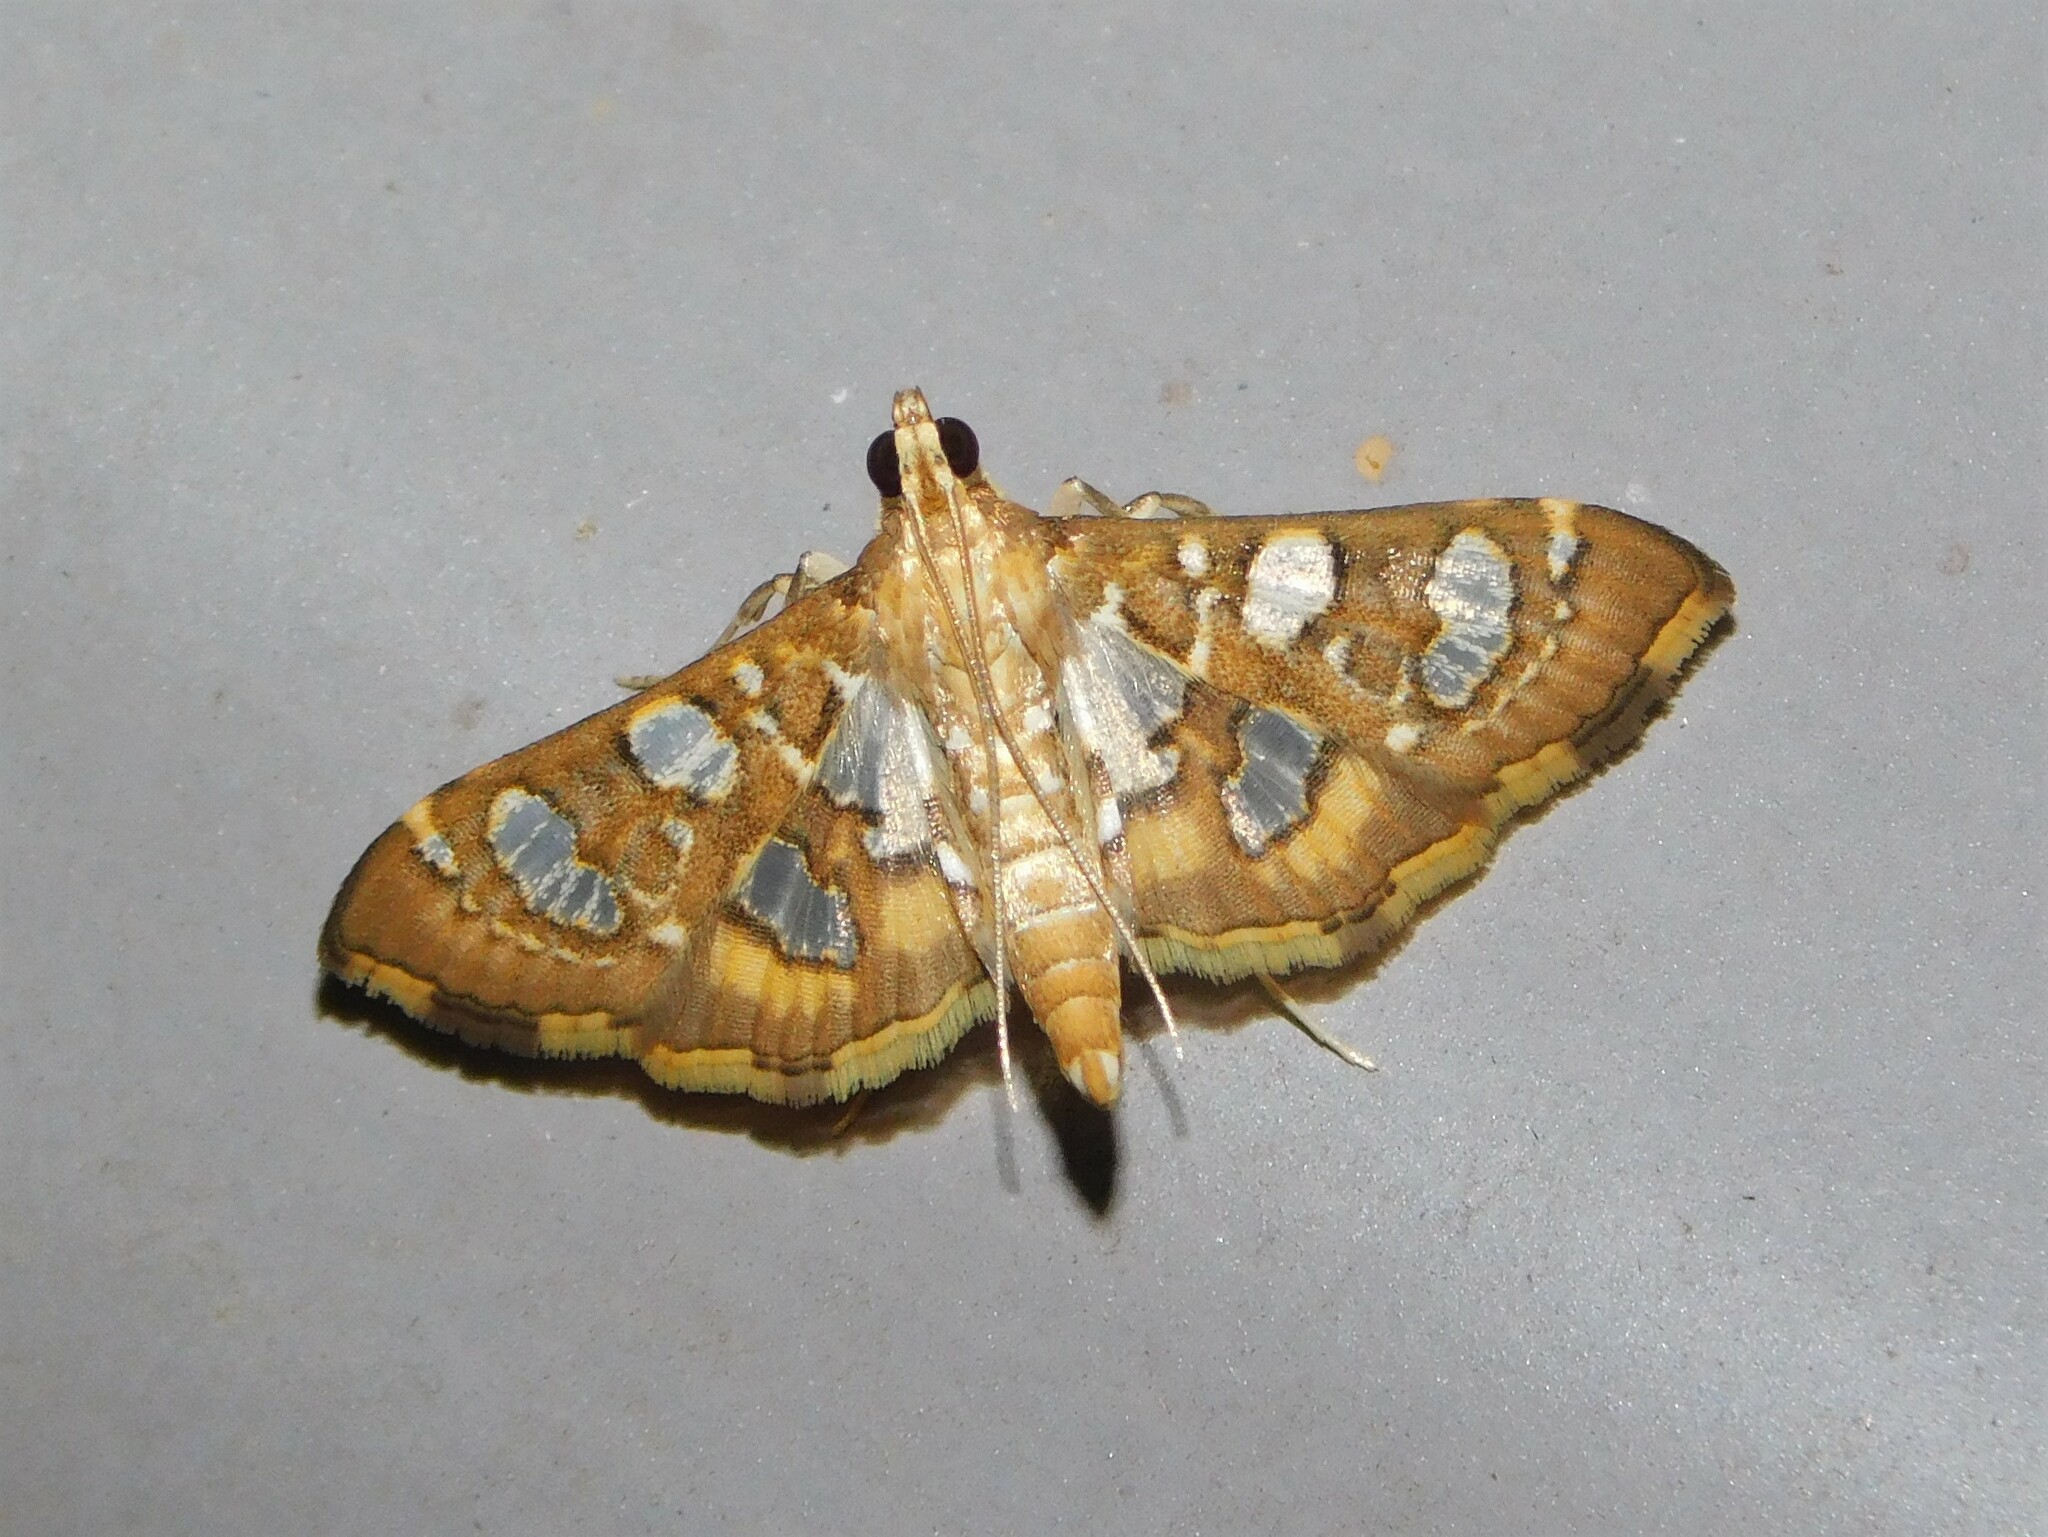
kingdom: Animalia
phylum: Arthropoda
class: Insecta
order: Lepidoptera
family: Crambidae
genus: Nausinoe
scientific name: Nausinoe quadrinalis
